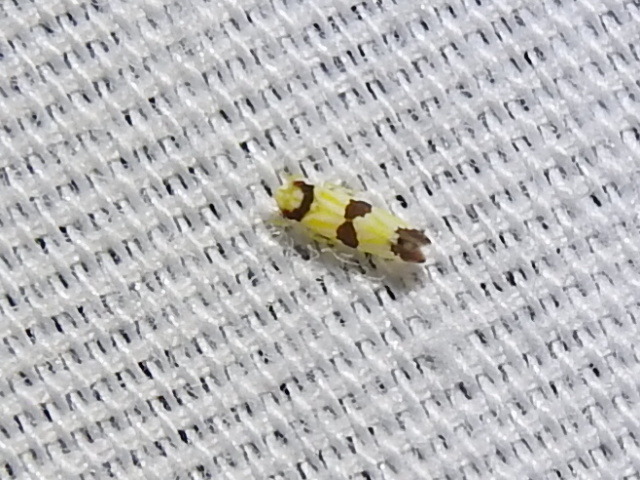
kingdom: Animalia
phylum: Arthropoda
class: Insecta
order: Hemiptera
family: Cicadellidae
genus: Erythroneura
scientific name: Erythroneura calycula
